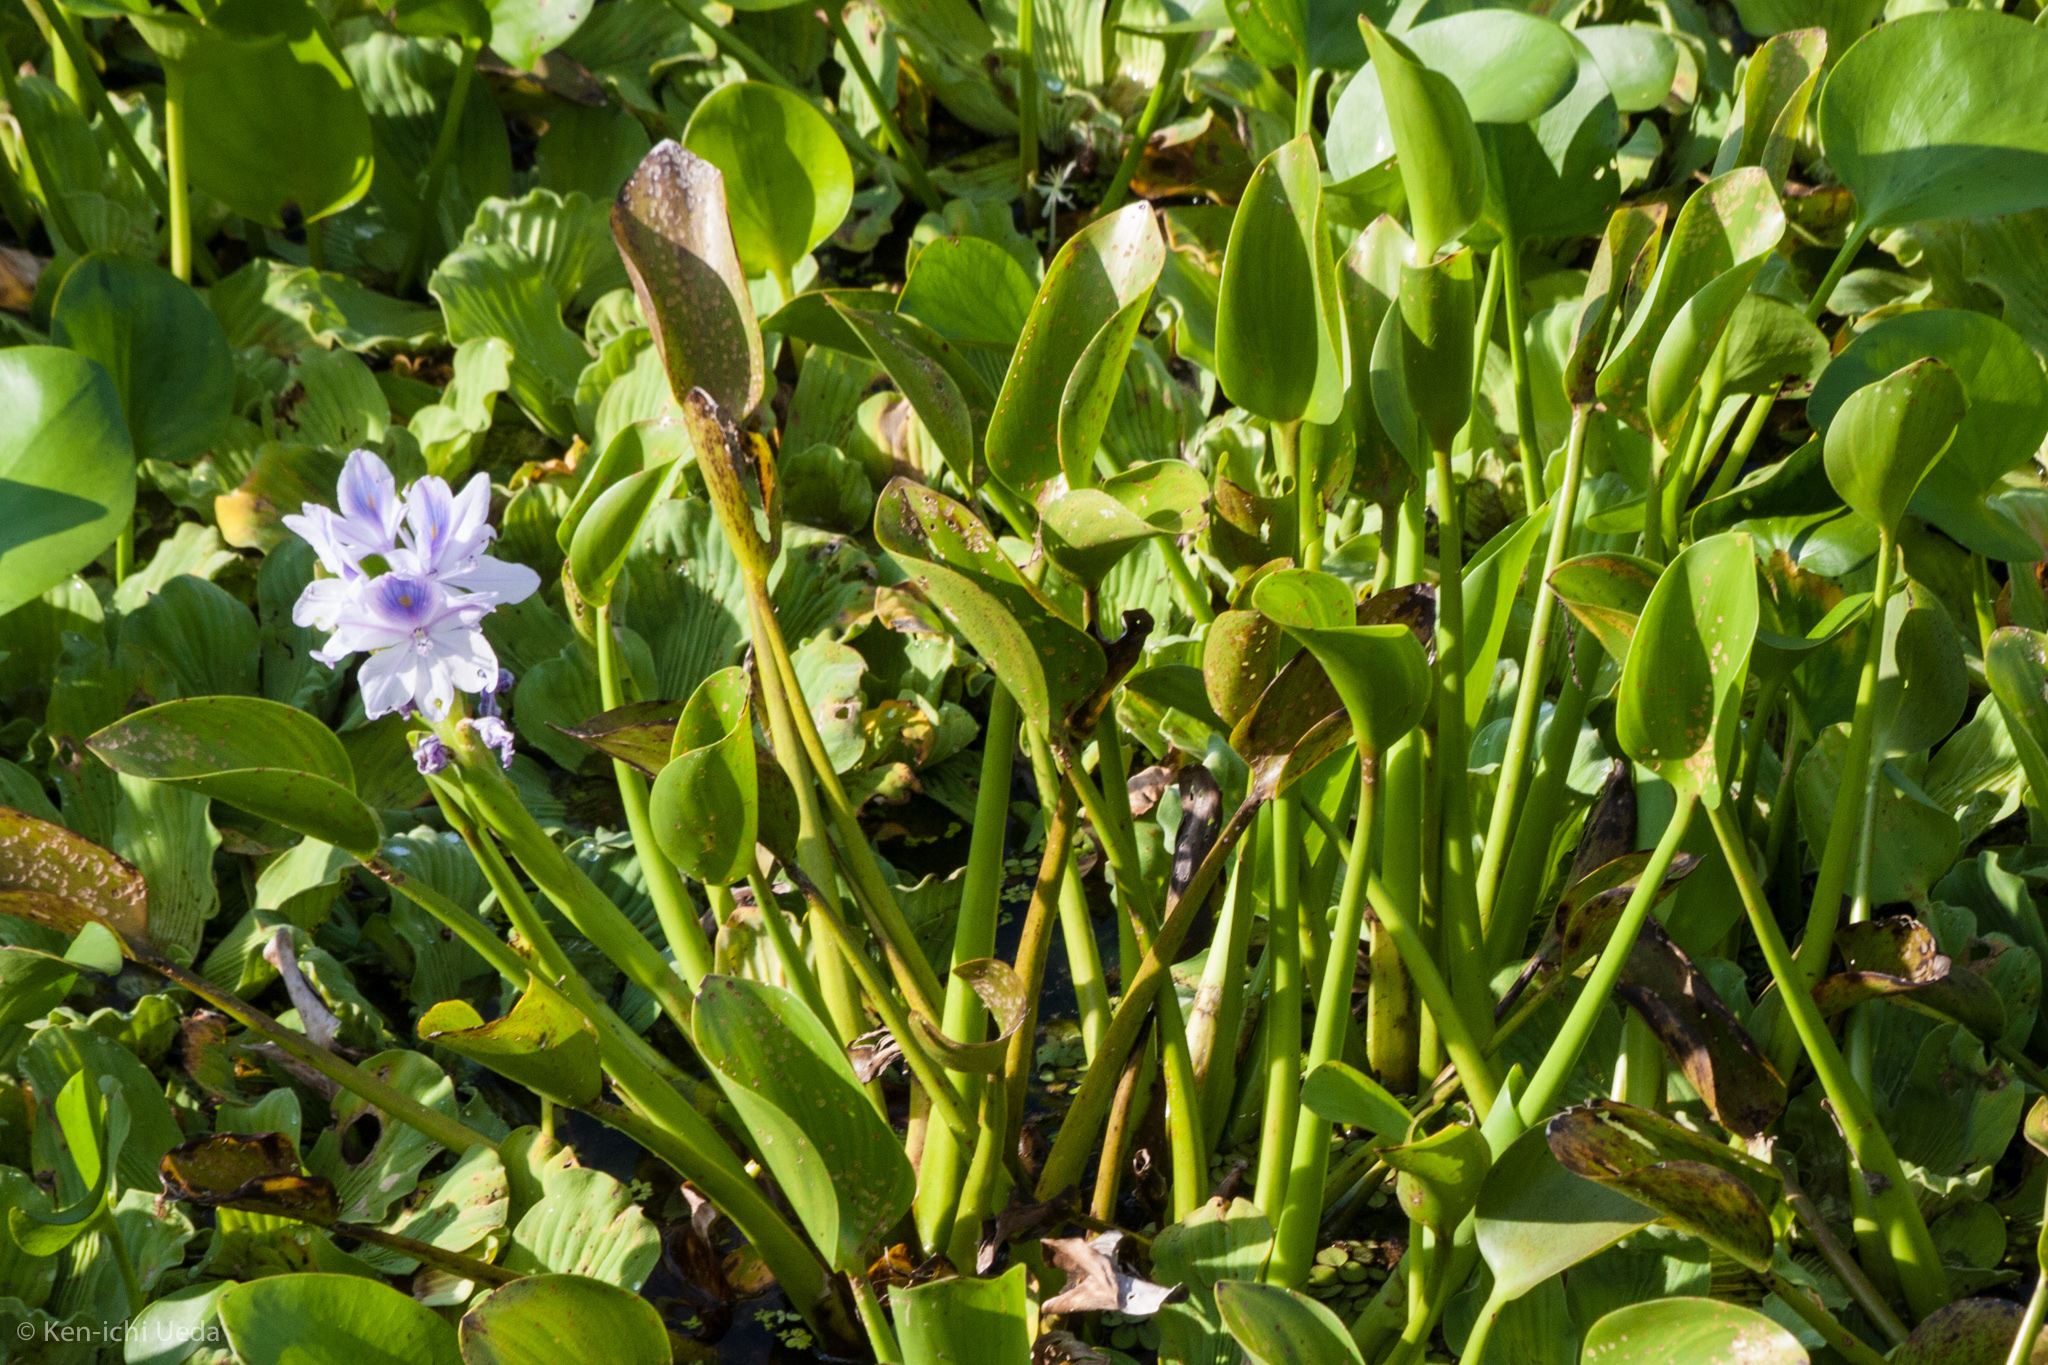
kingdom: Plantae
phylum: Tracheophyta
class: Liliopsida
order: Commelinales
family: Pontederiaceae
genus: Pontederia
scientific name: Pontederia crassipes
